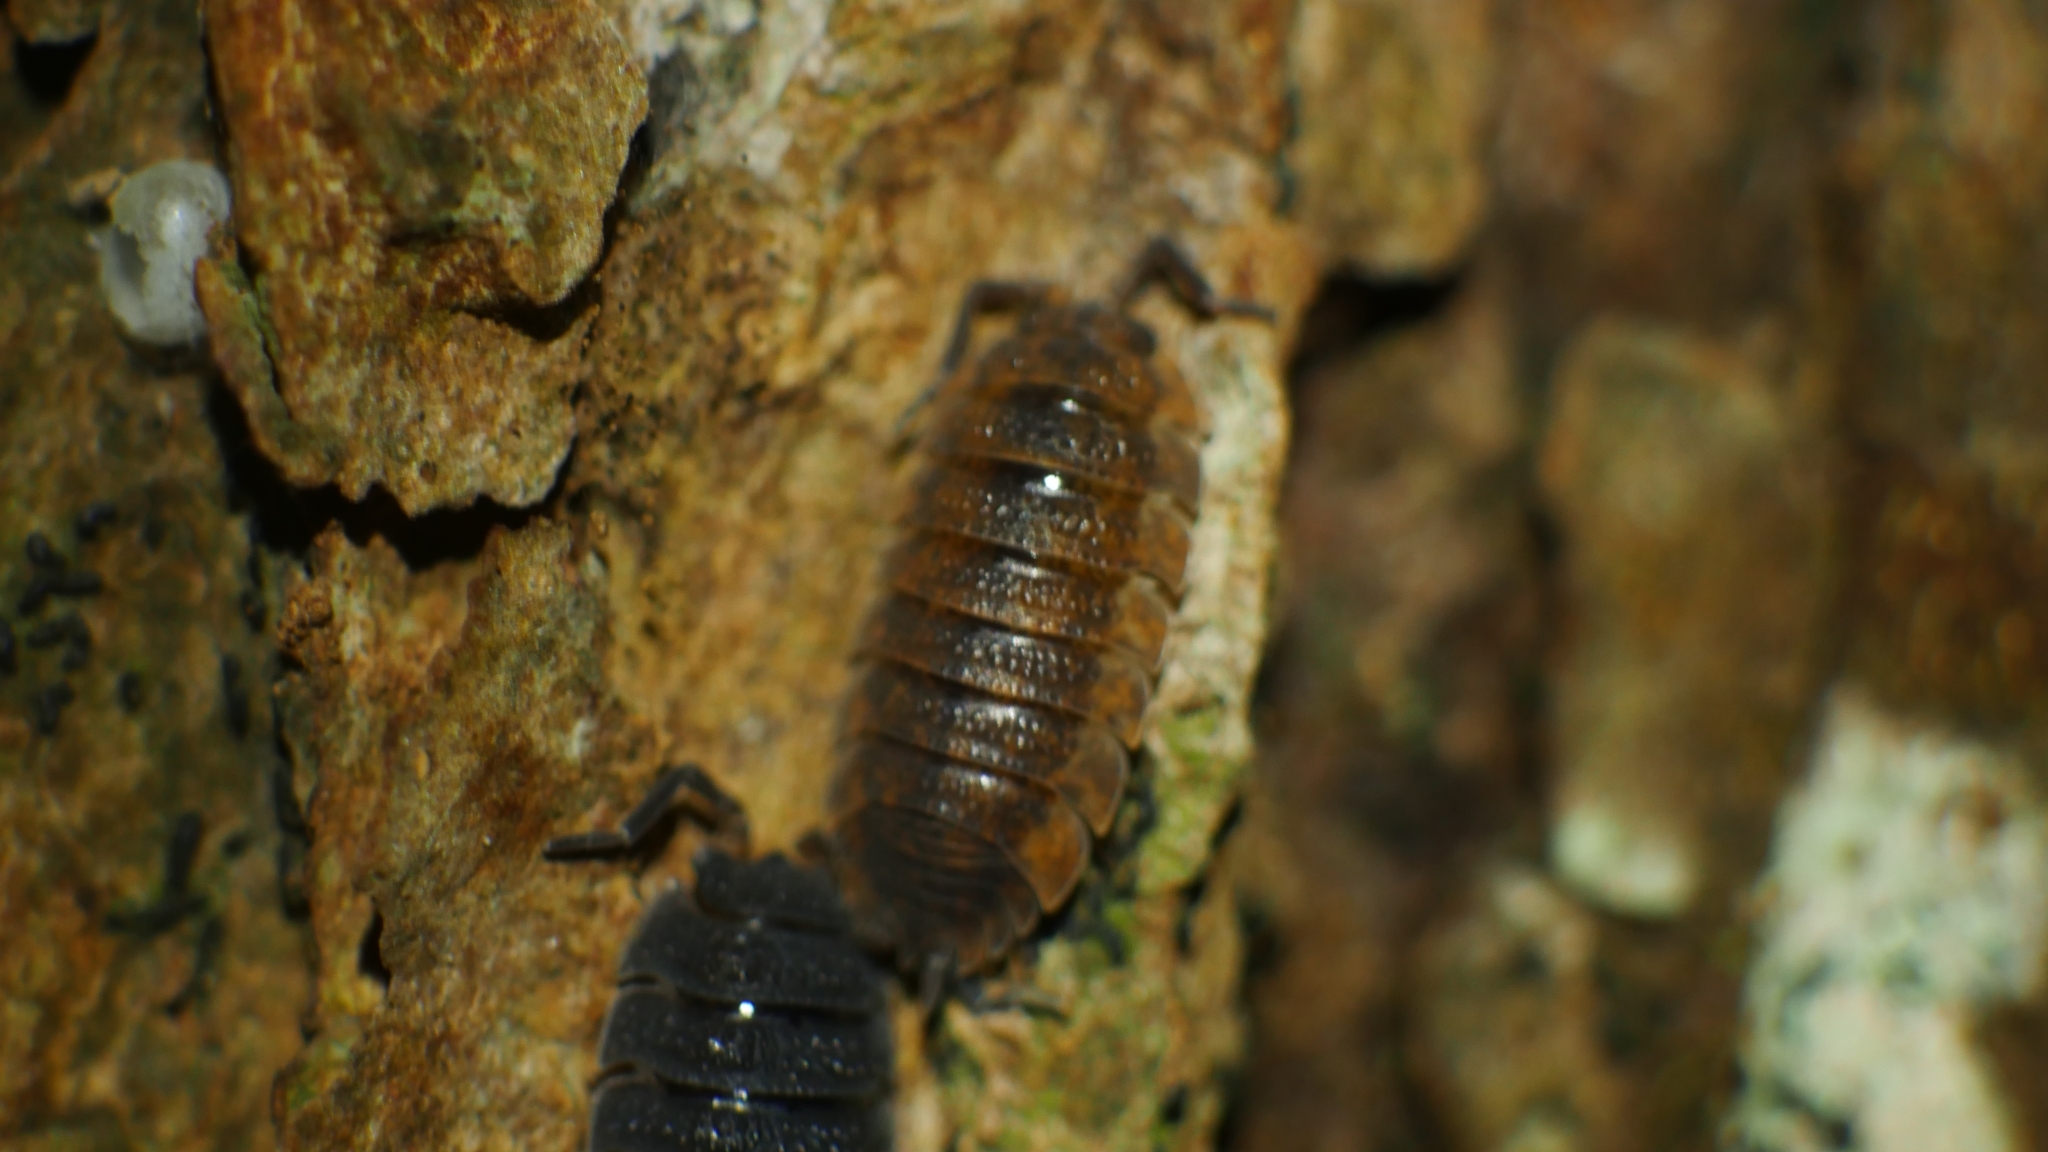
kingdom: Animalia
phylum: Arthropoda
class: Malacostraca
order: Isopoda
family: Porcellionidae
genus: Porcellio
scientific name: Porcellio scaber
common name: Common rough woodlouse
